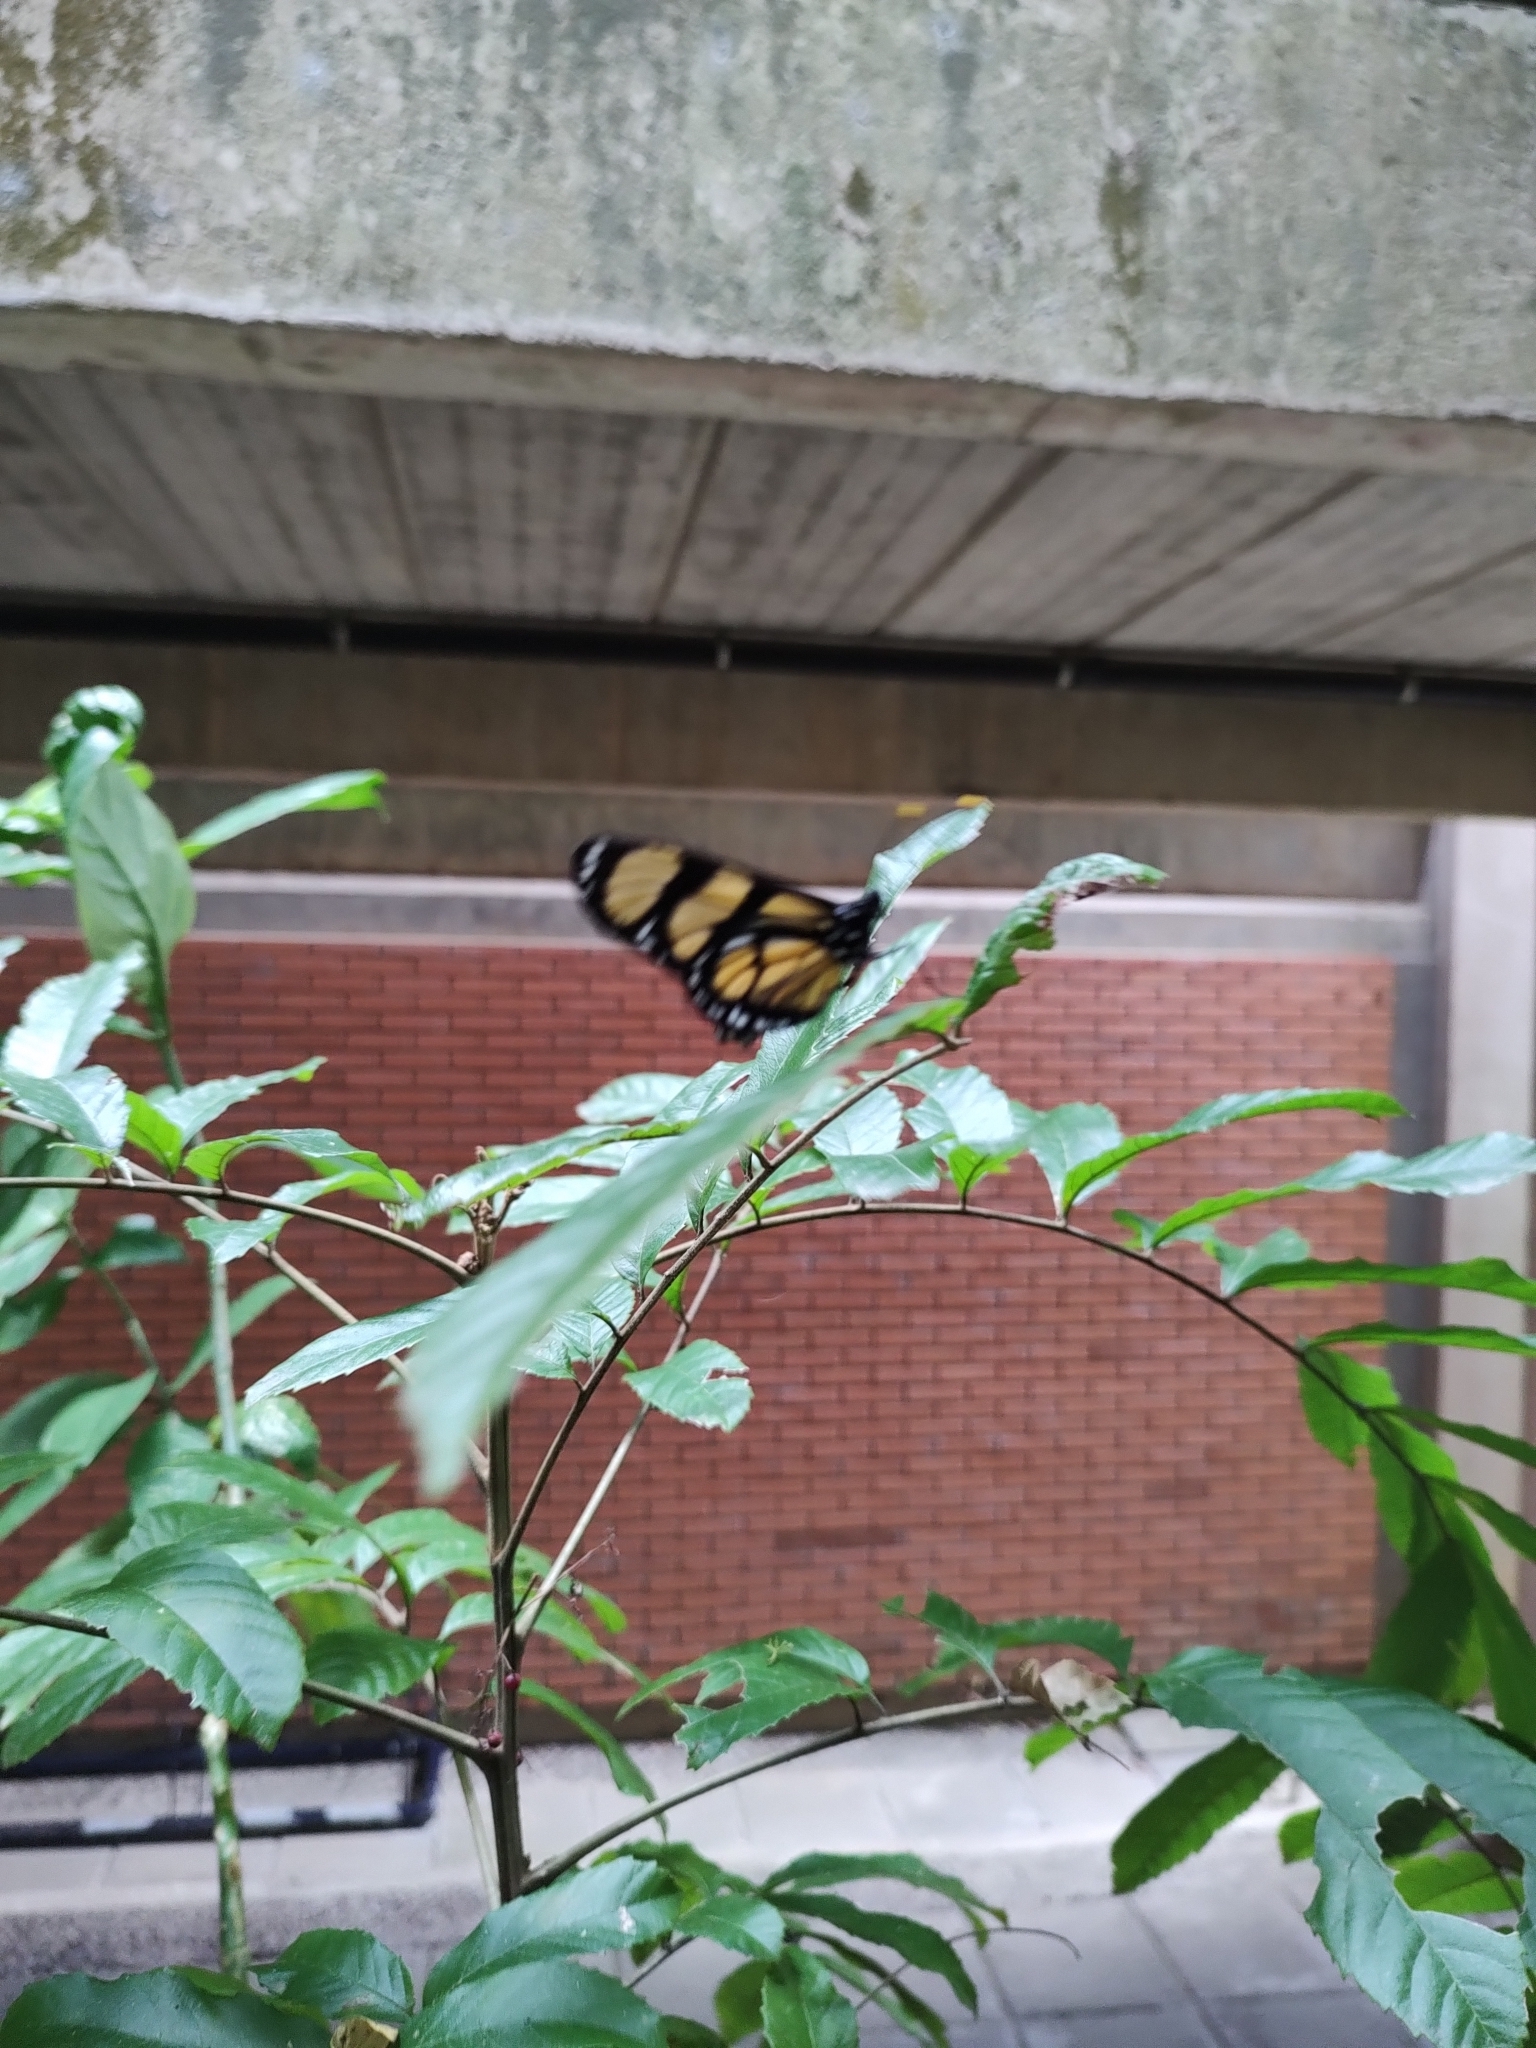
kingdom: Animalia
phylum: Arthropoda
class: Insecta
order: Lepidoptera
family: Nymphalidae
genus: Methona
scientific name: Methona themisto
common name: Themisto amberwing
